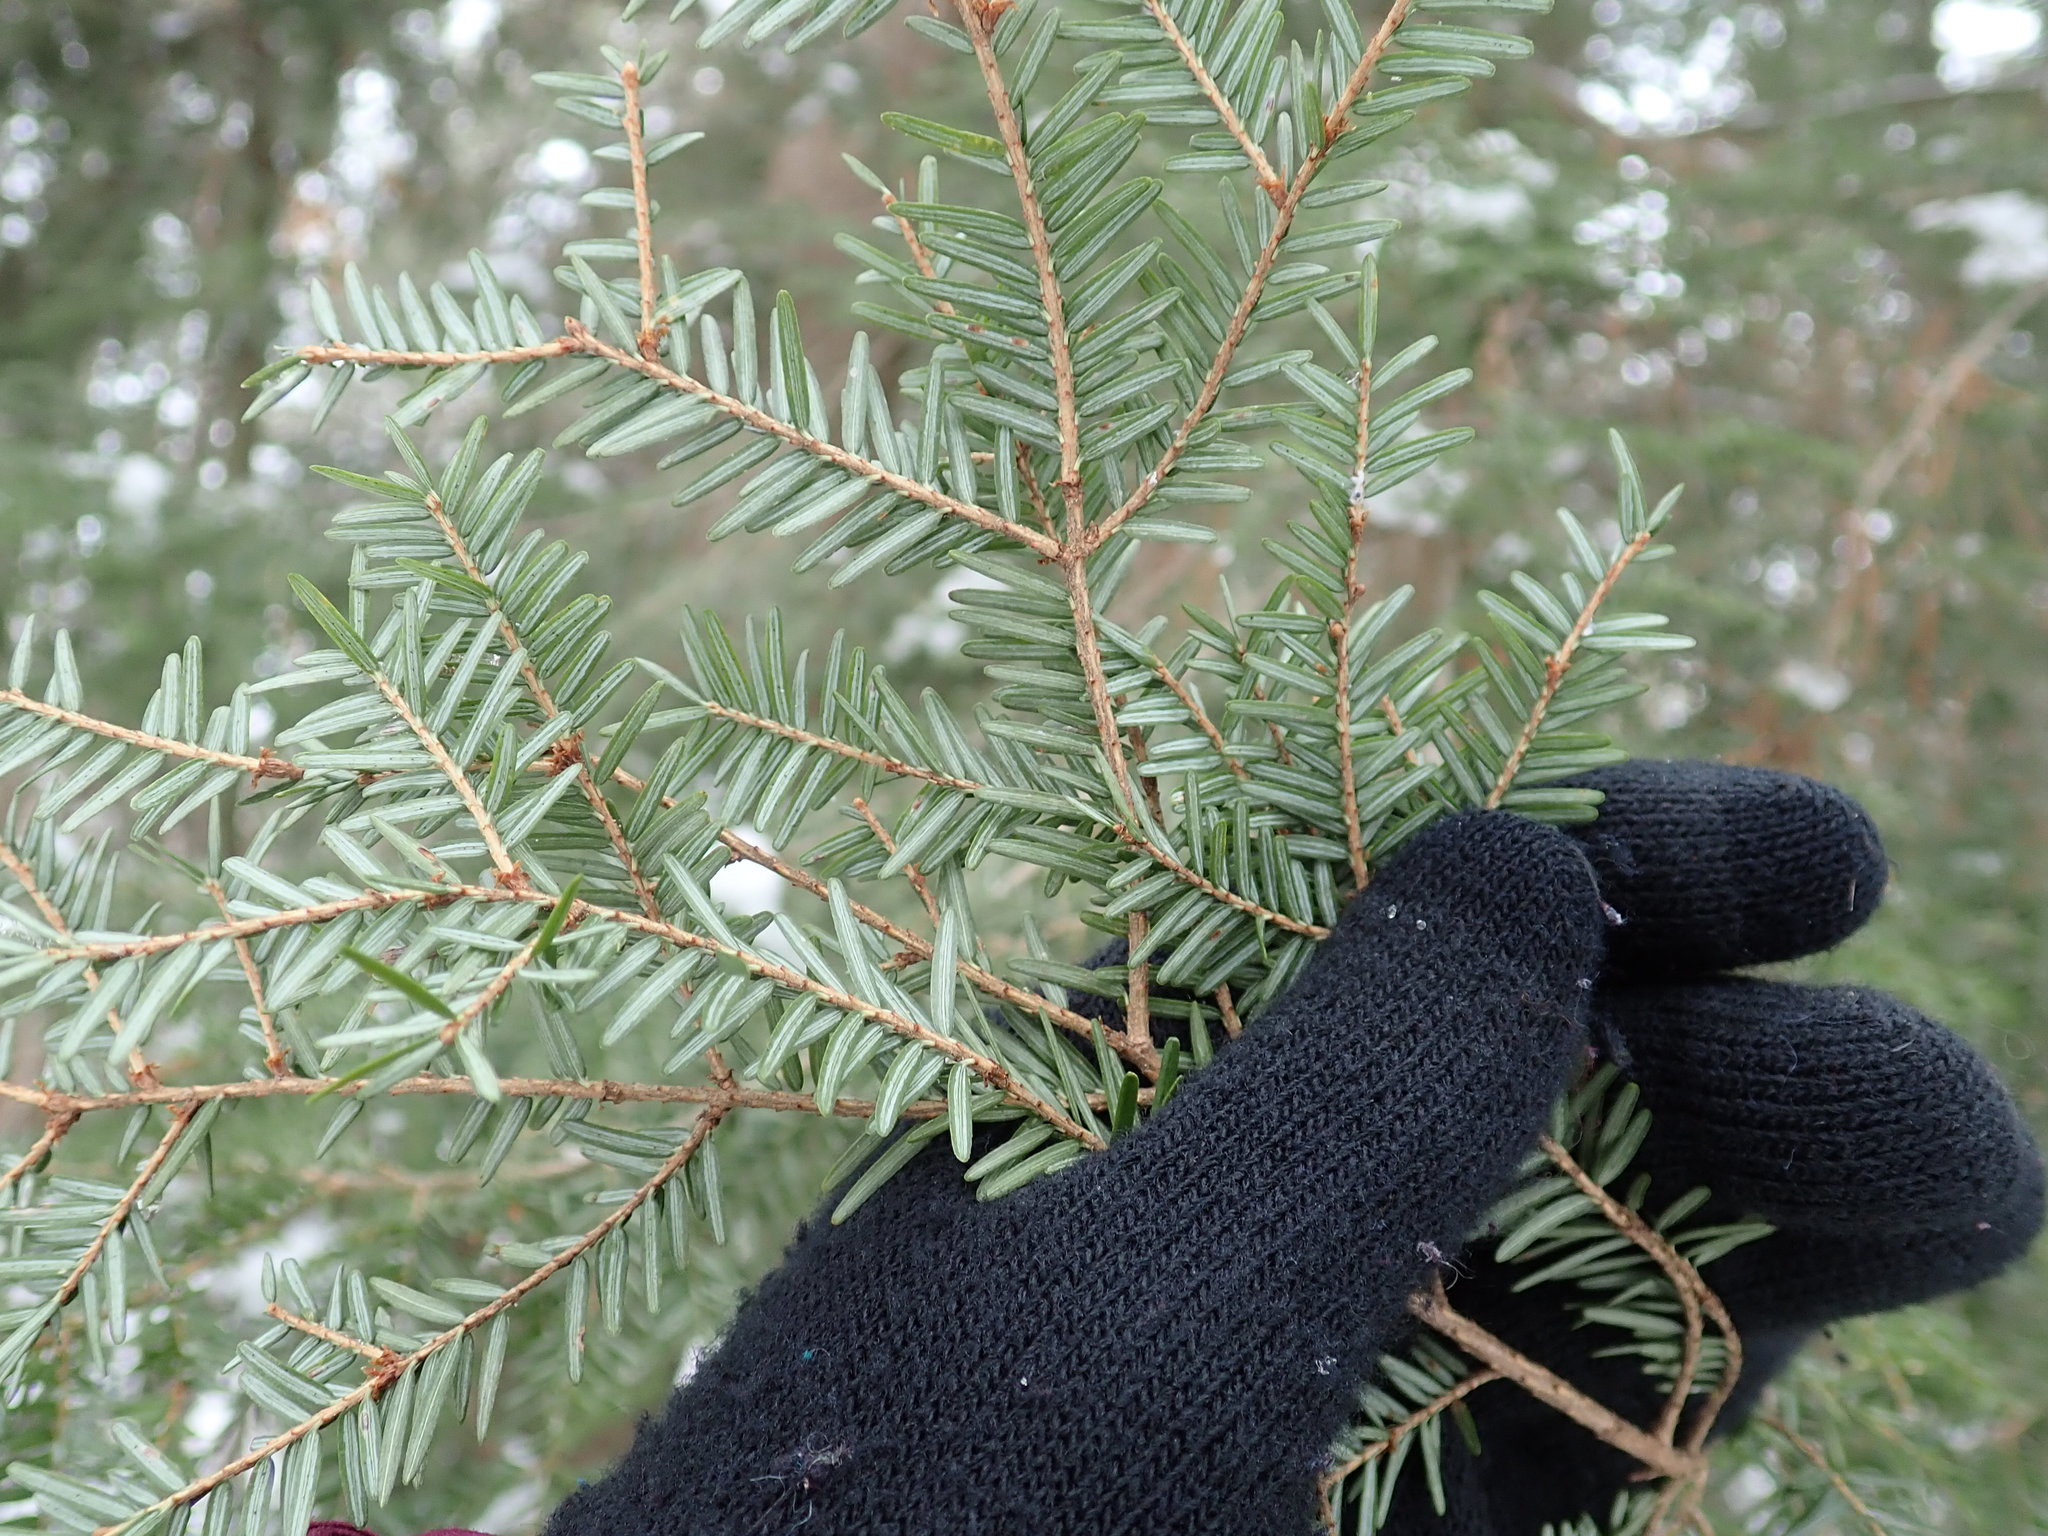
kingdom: Plantae
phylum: Tracheophyta
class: Pinopsida
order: Pinales
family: Pinaceae
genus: Tsuga
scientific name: Tsuga canadensis
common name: Eastern hemlock
